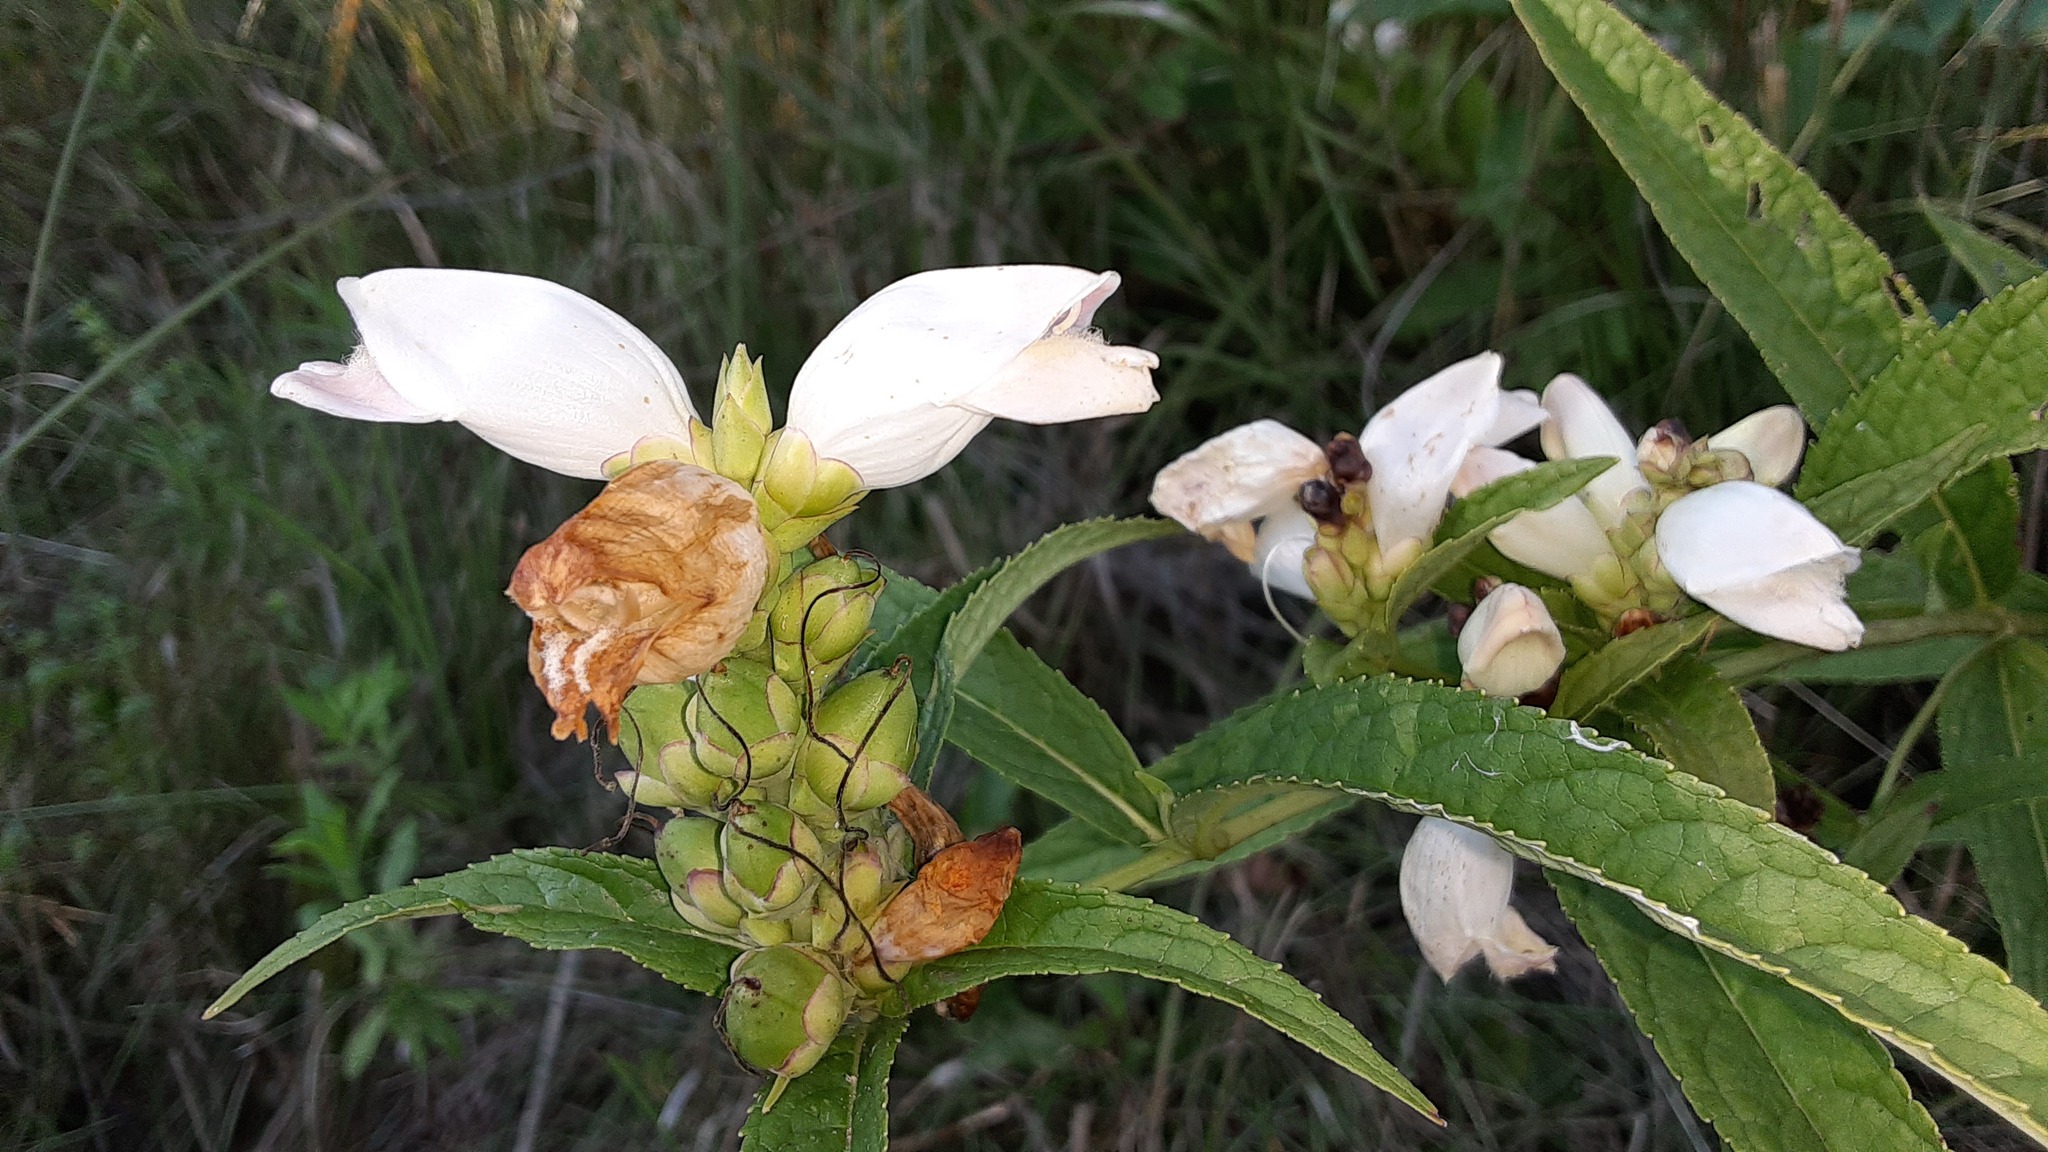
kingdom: Plantae
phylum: Tracheophyta
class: Magnoliopsida
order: Lamiales
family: Plantaginaceae
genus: Chelone
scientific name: Chelone glabra
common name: Snakehead
